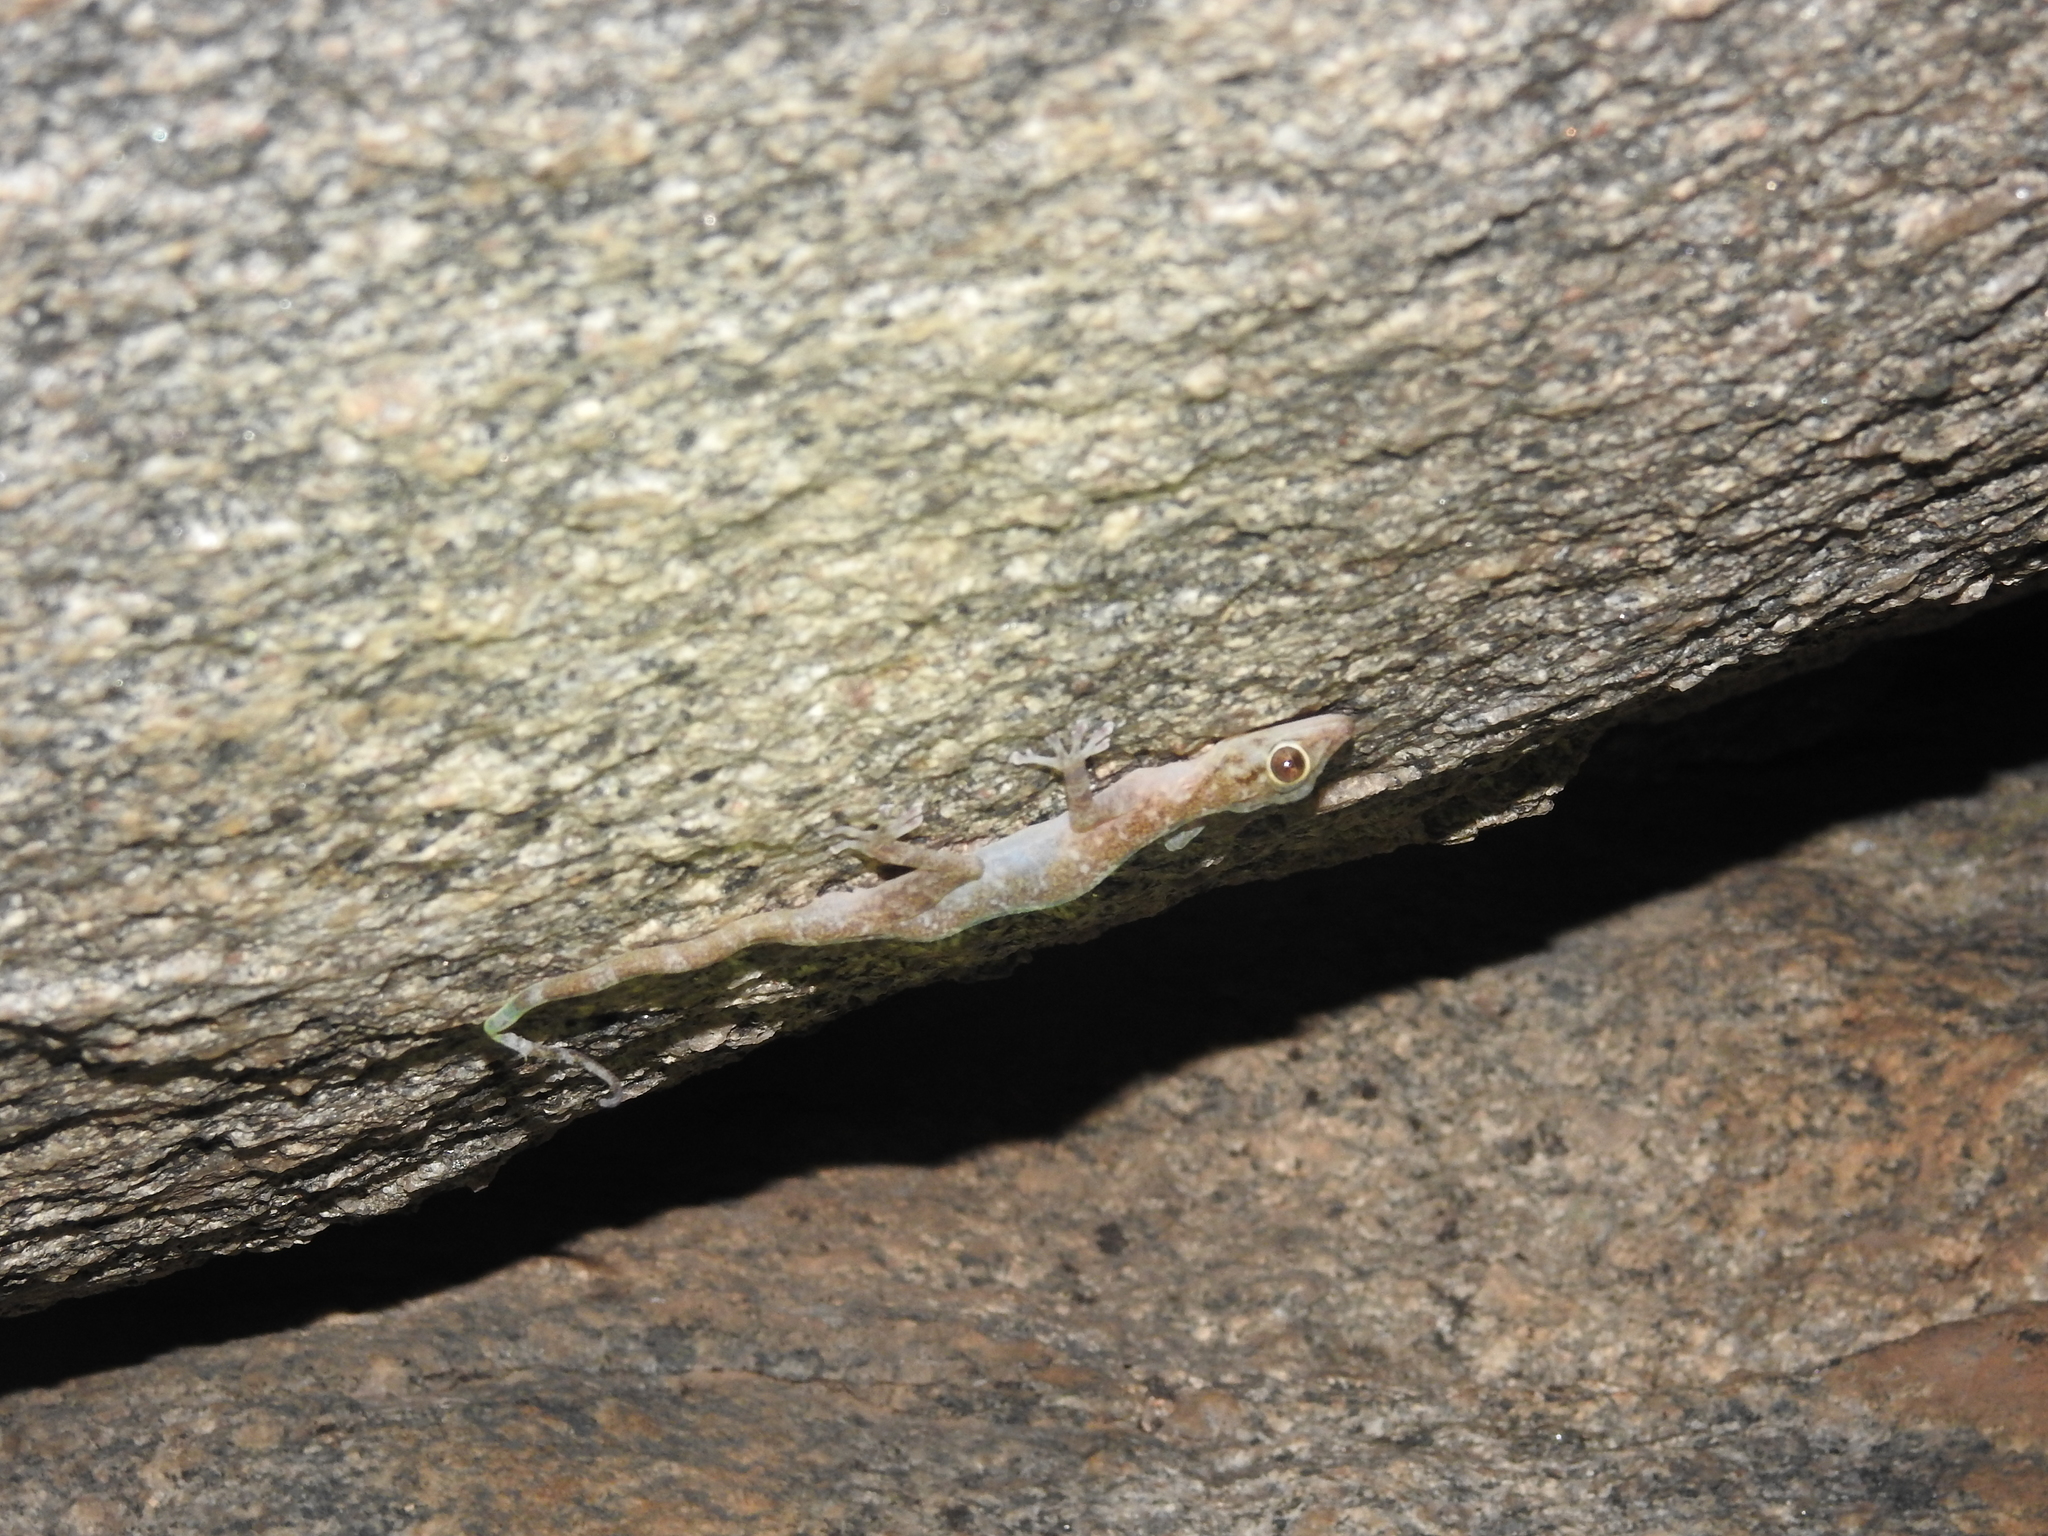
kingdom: Animalia
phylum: Chordata
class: Squamata
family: Gekkonidae
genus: Calodactylodes
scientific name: Calodactylodes aureus
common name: Indian golden gecko
